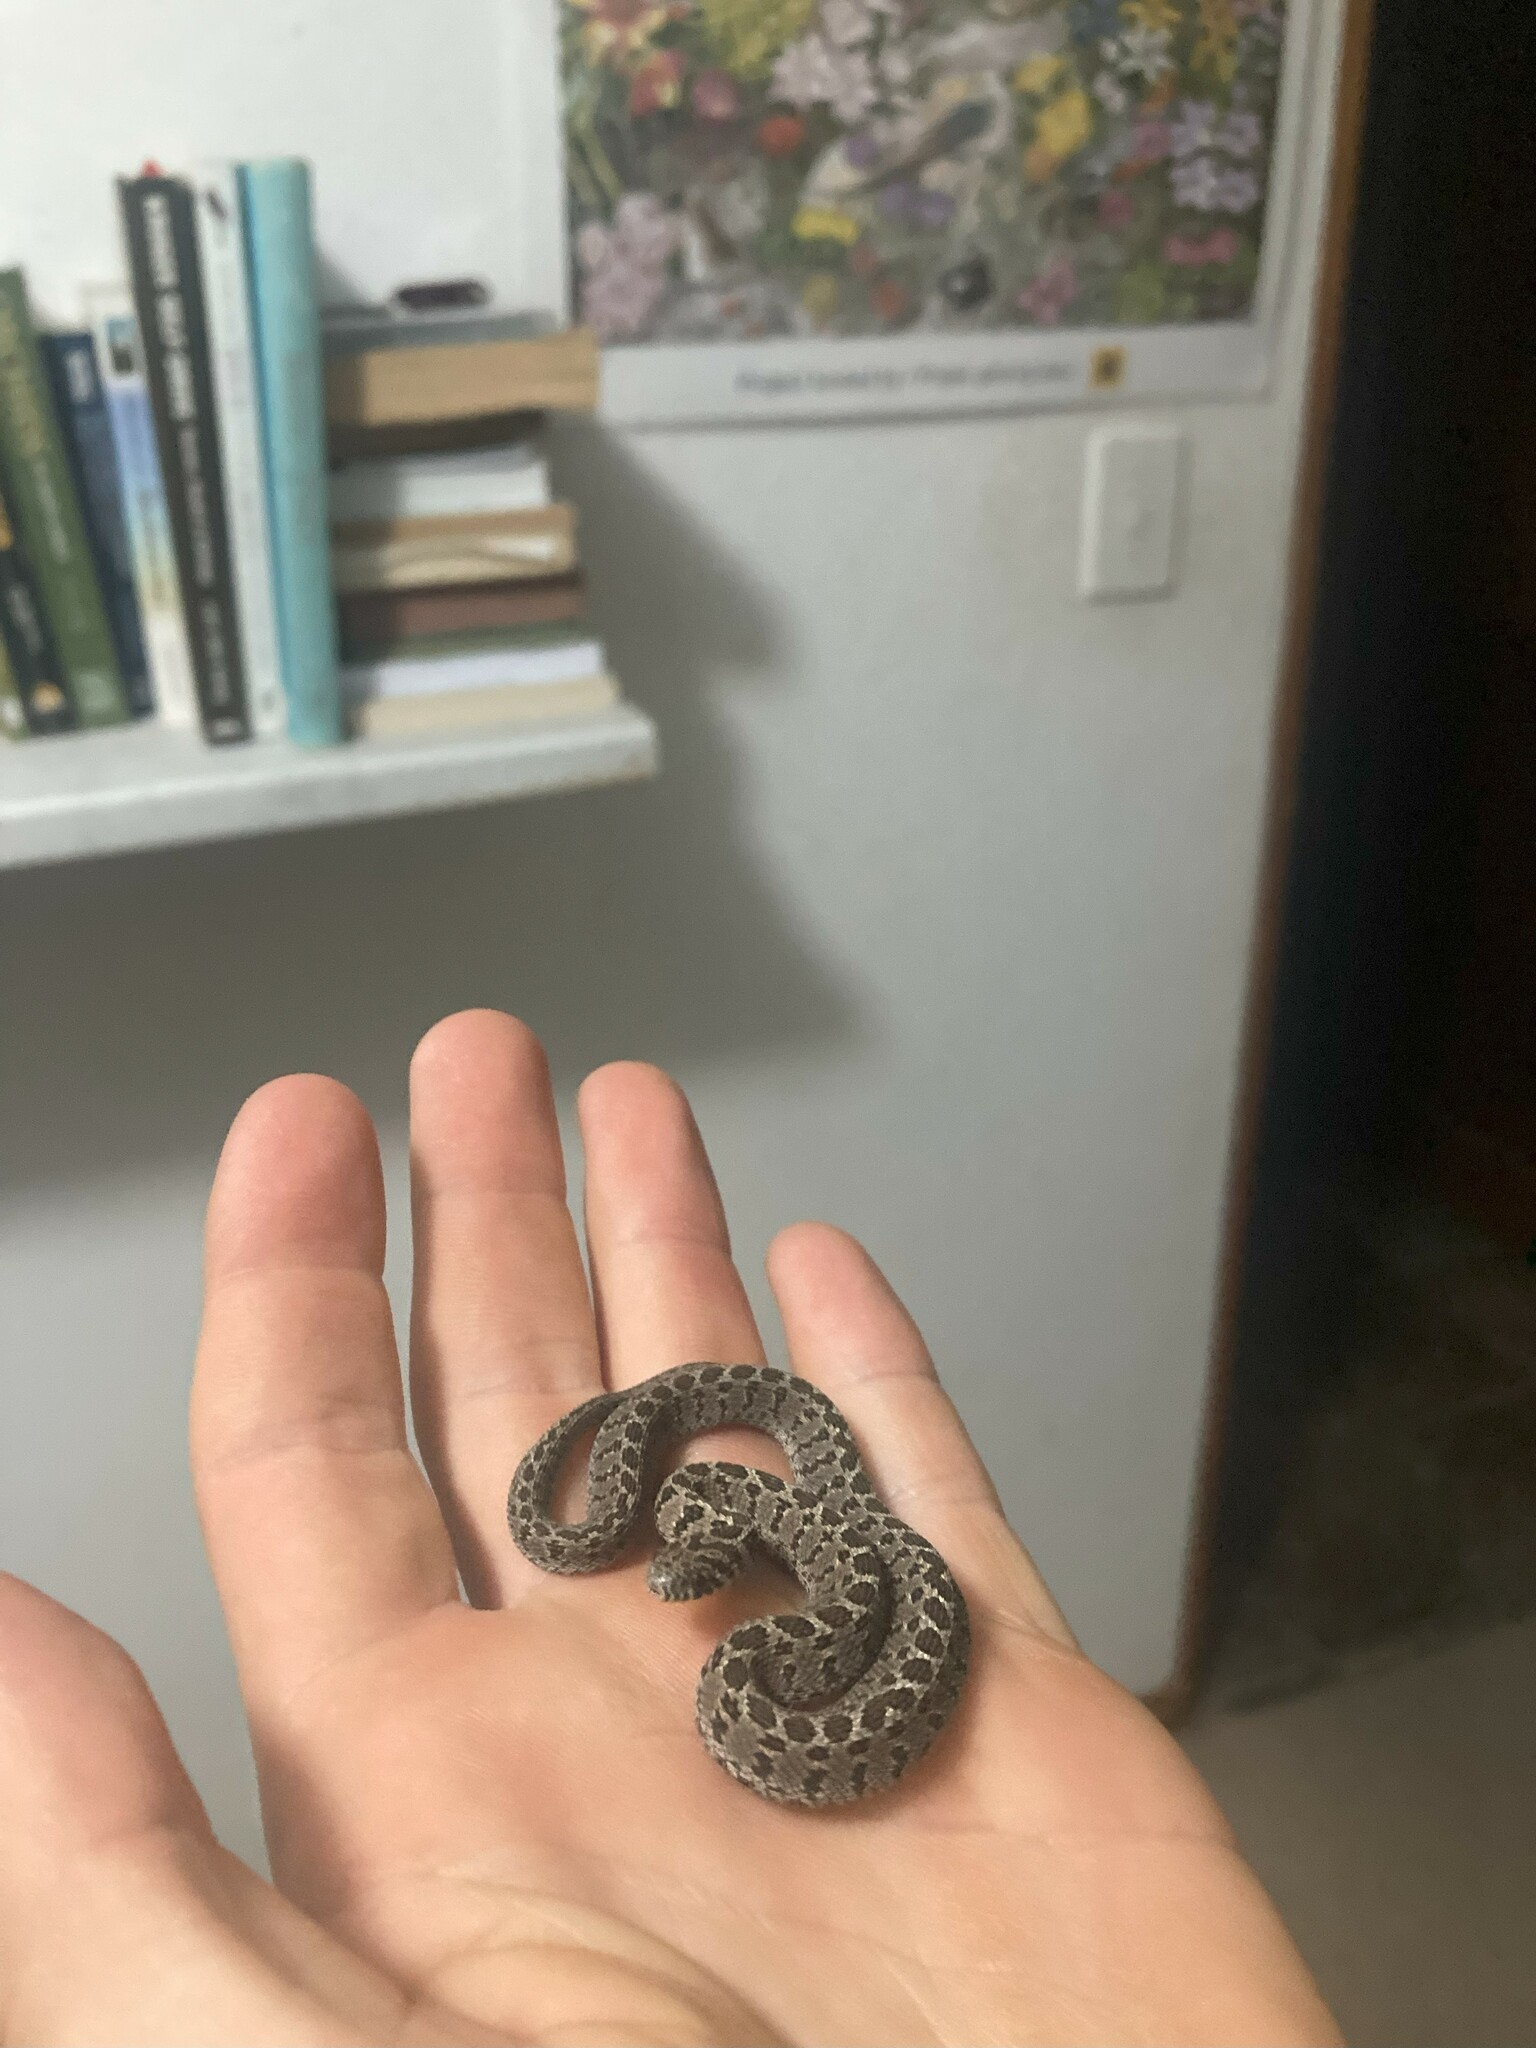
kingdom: Animalia
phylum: Chordata
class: Squamata
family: Colubridae
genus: Dasypeltis
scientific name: Dasypeltis scabra
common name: Common egg eater
